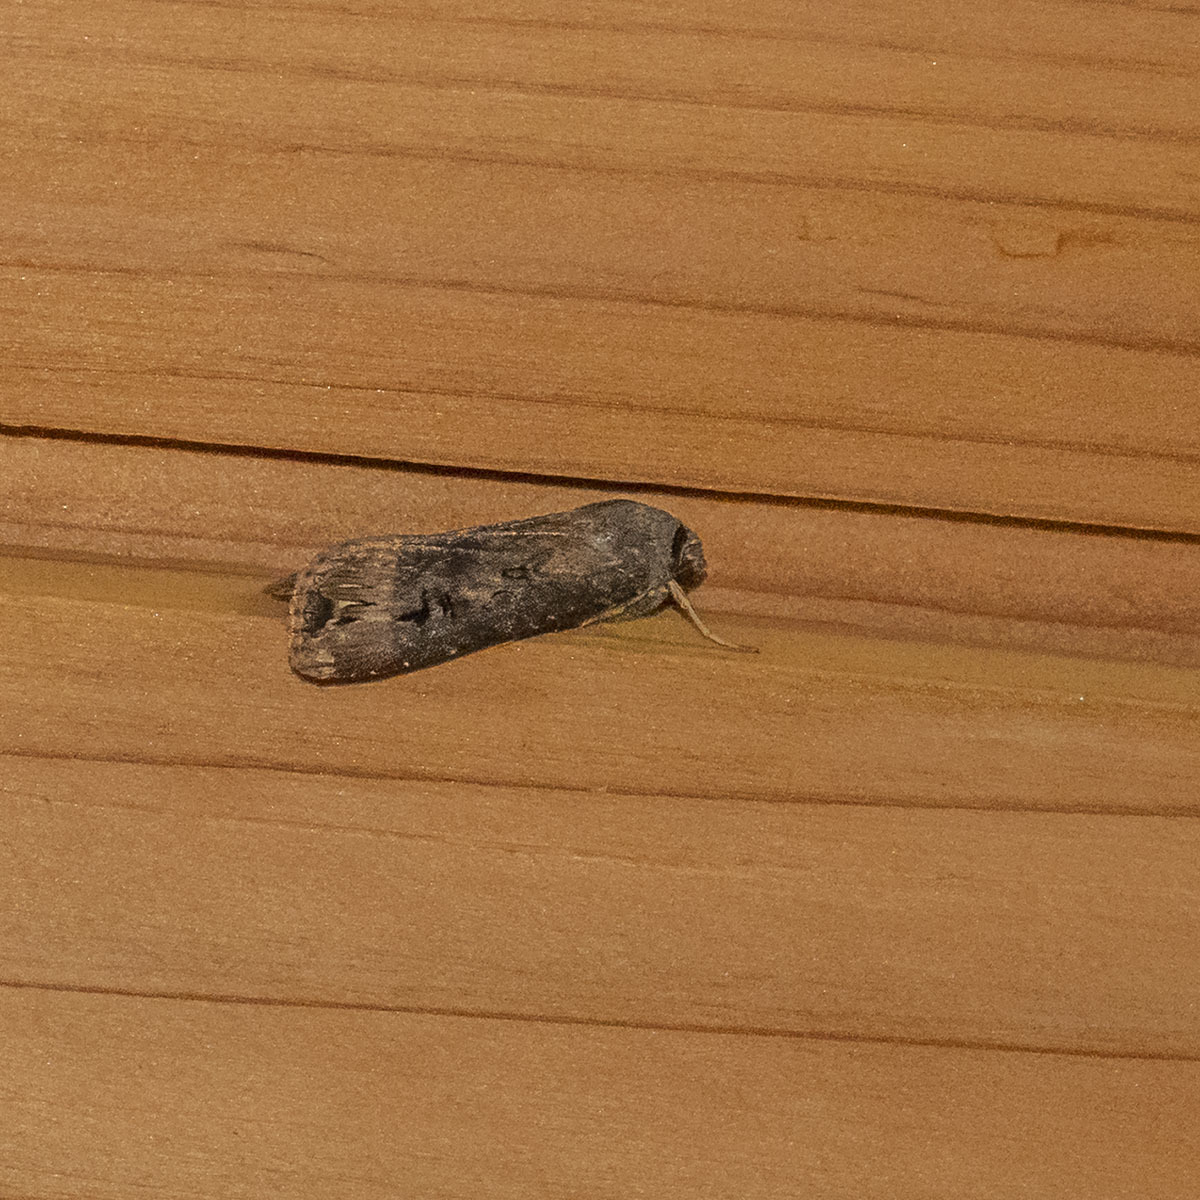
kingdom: Animalia
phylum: Arthropoda
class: Insecta
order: Lepidoptera
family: Noctuidae
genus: Agrotis
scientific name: Agrotis ipsilon
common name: Dark sword-grass
